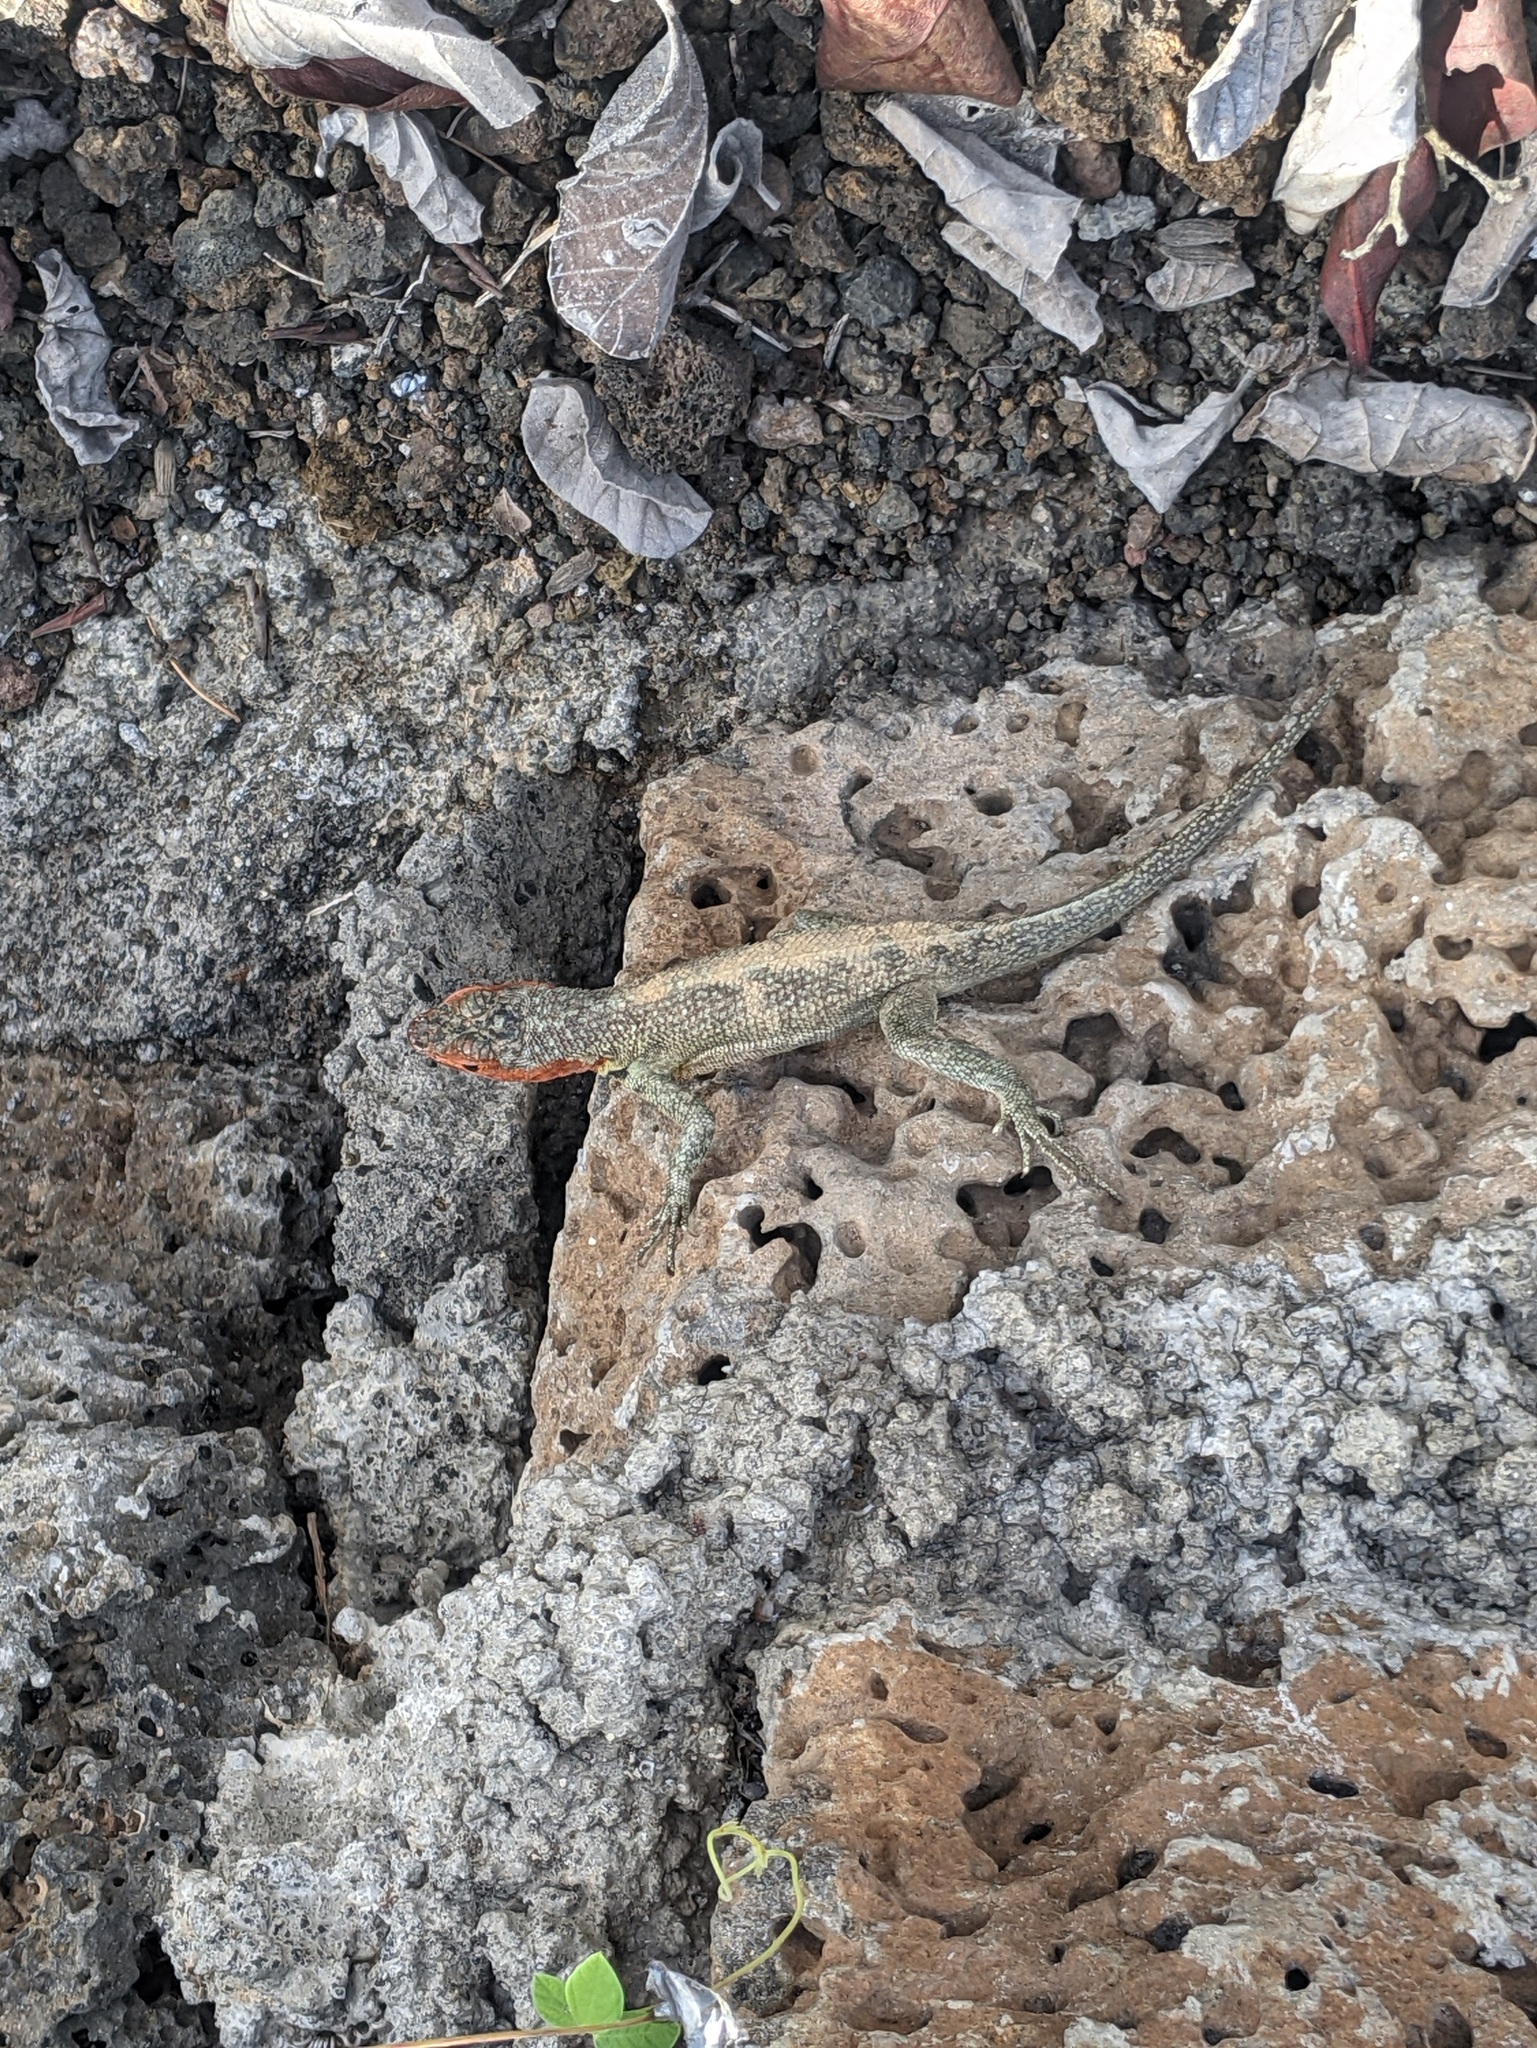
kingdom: Animalia
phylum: Chordata
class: Squamata
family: Tropiduridae
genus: Microlophus
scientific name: Microlophus indefatigabilis
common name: Galapagos lava lizard
